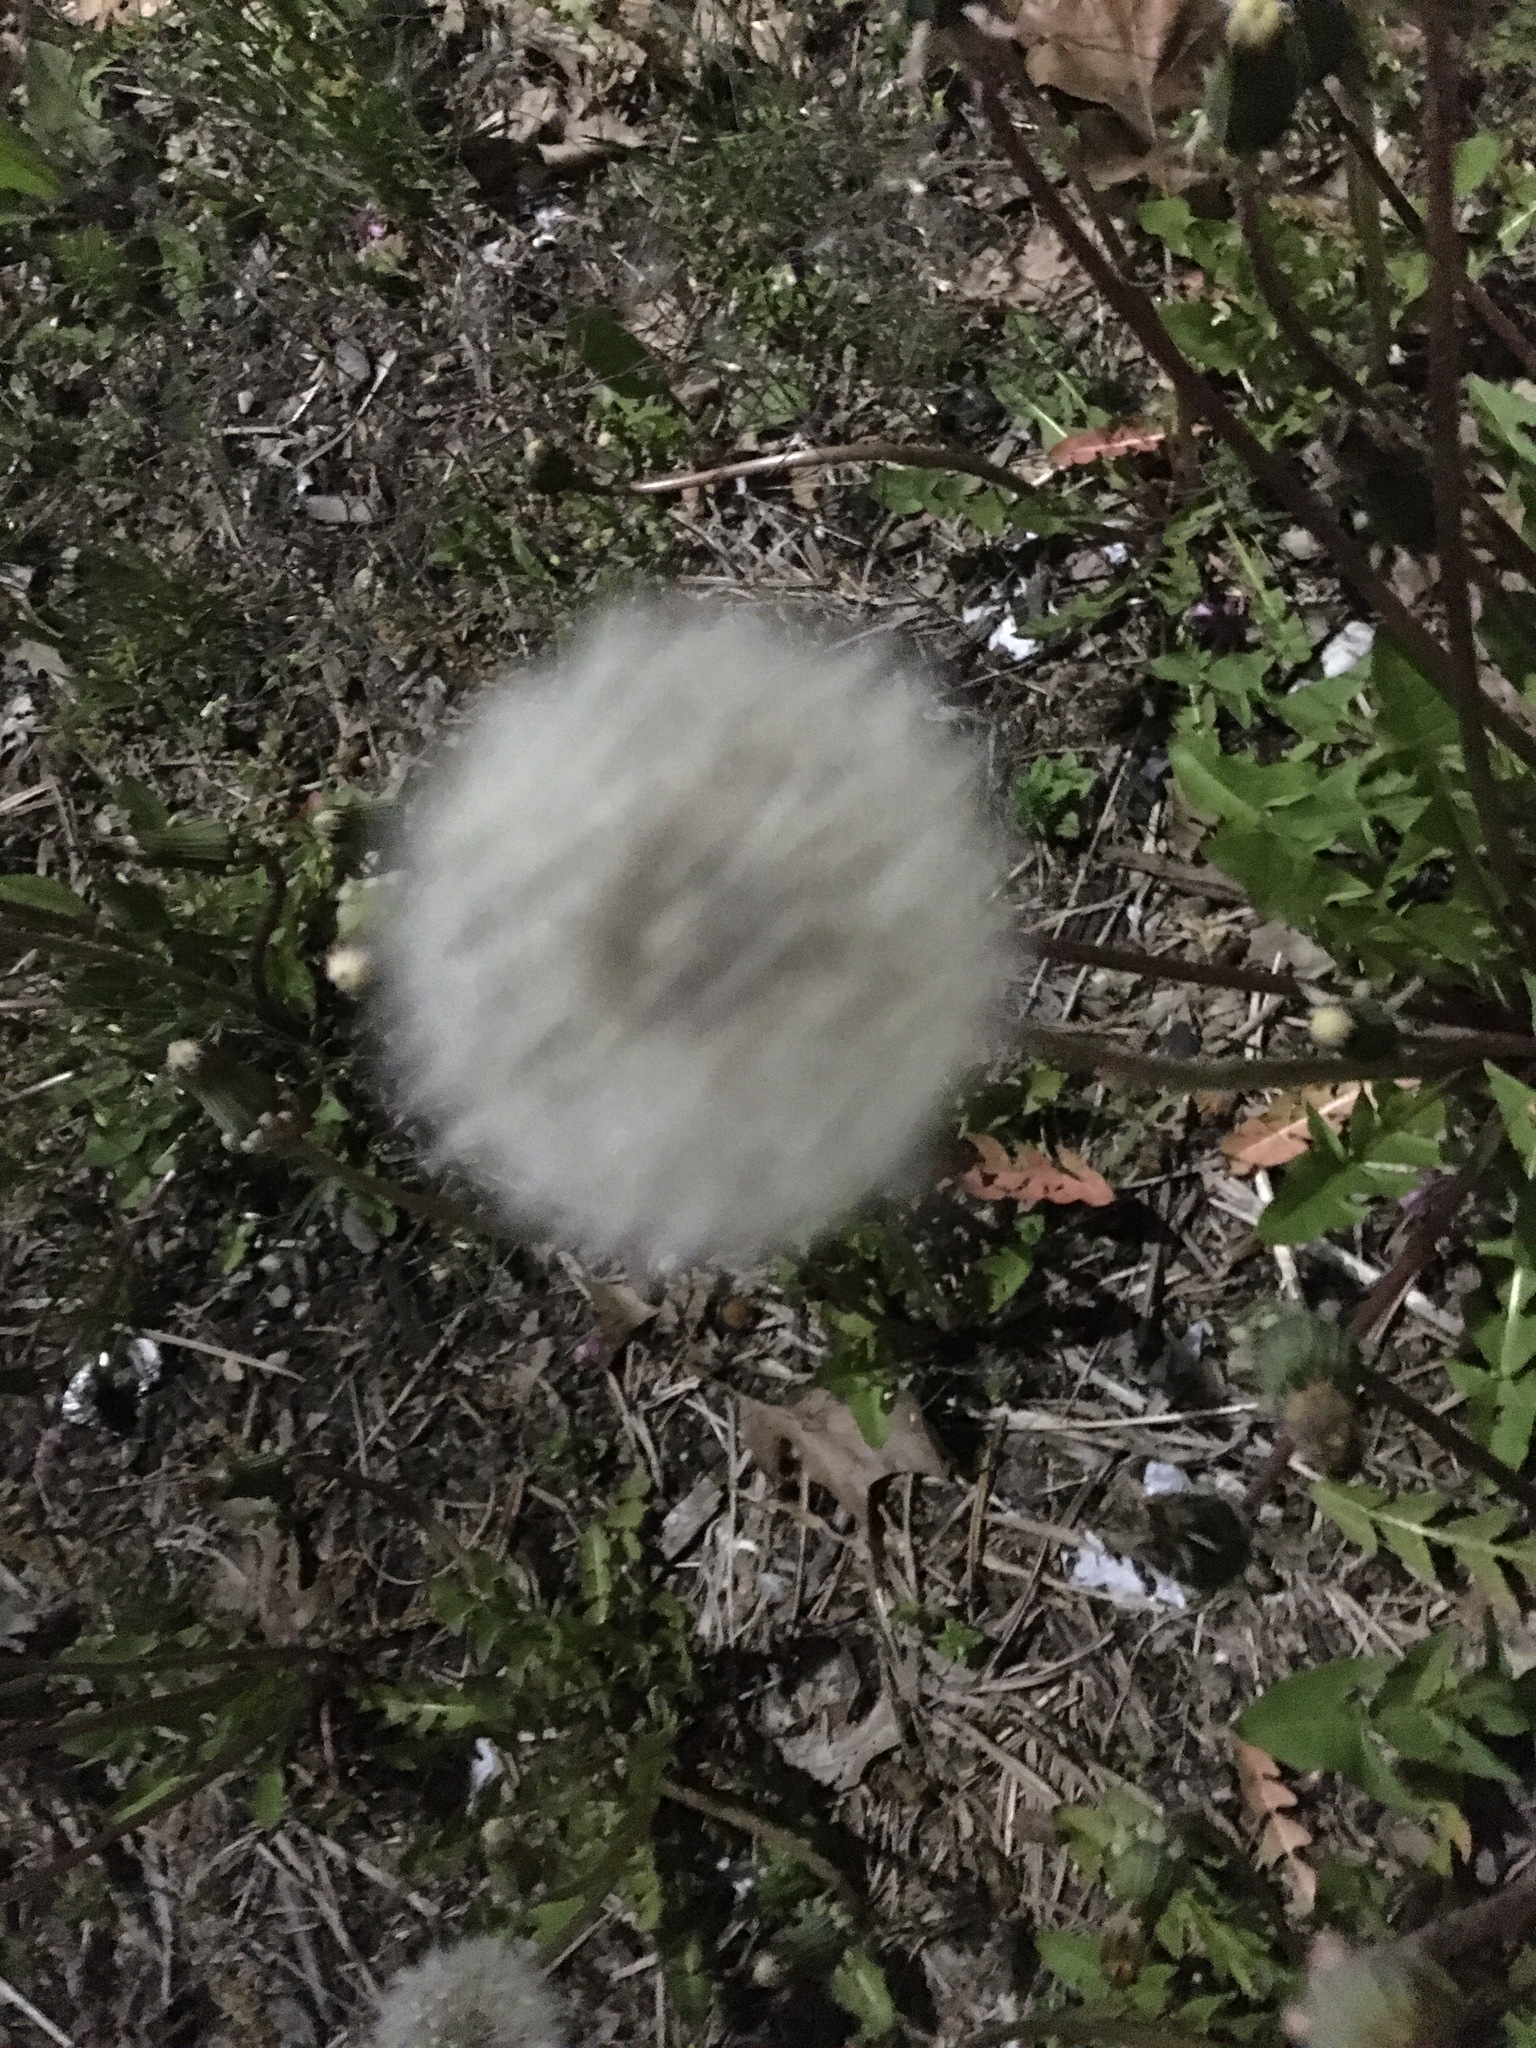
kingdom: Plantae
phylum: Tracheophyta
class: Magnoliopsida
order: Asterales
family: Asteraceae
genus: Taraxacum
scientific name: Taraxacum officinale
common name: Common dandelion
